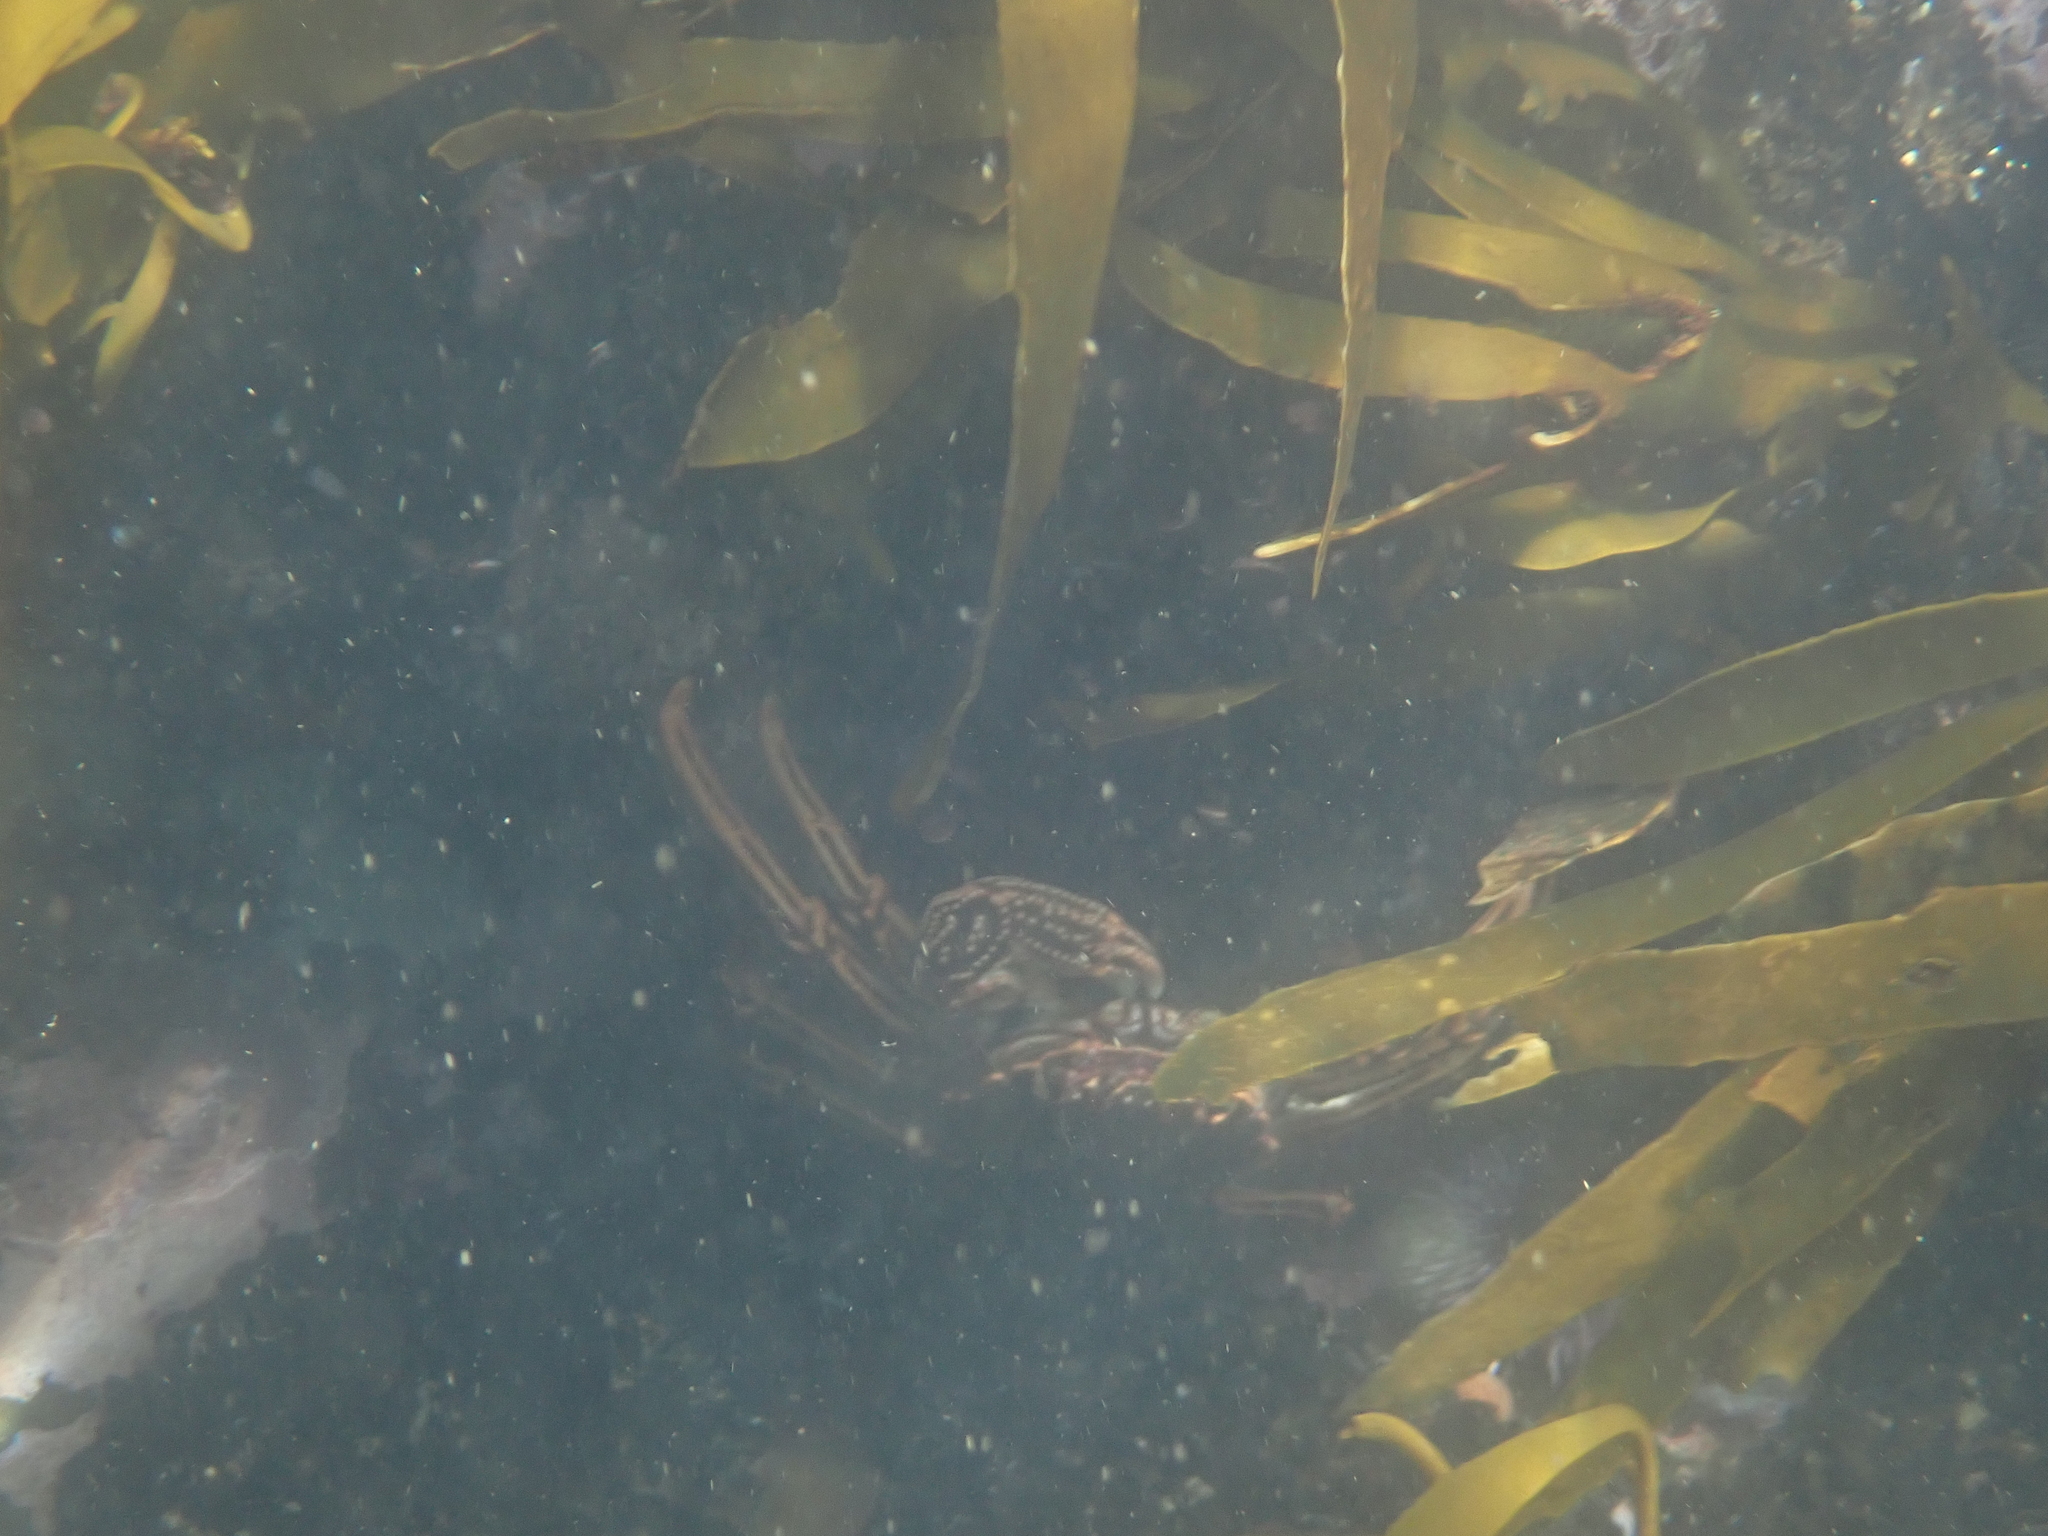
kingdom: Animalia
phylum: Arthropoda
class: Malacostraca
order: Decapoda
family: Plagusiidae
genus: Guinusia
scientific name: Guinusia chabrus
